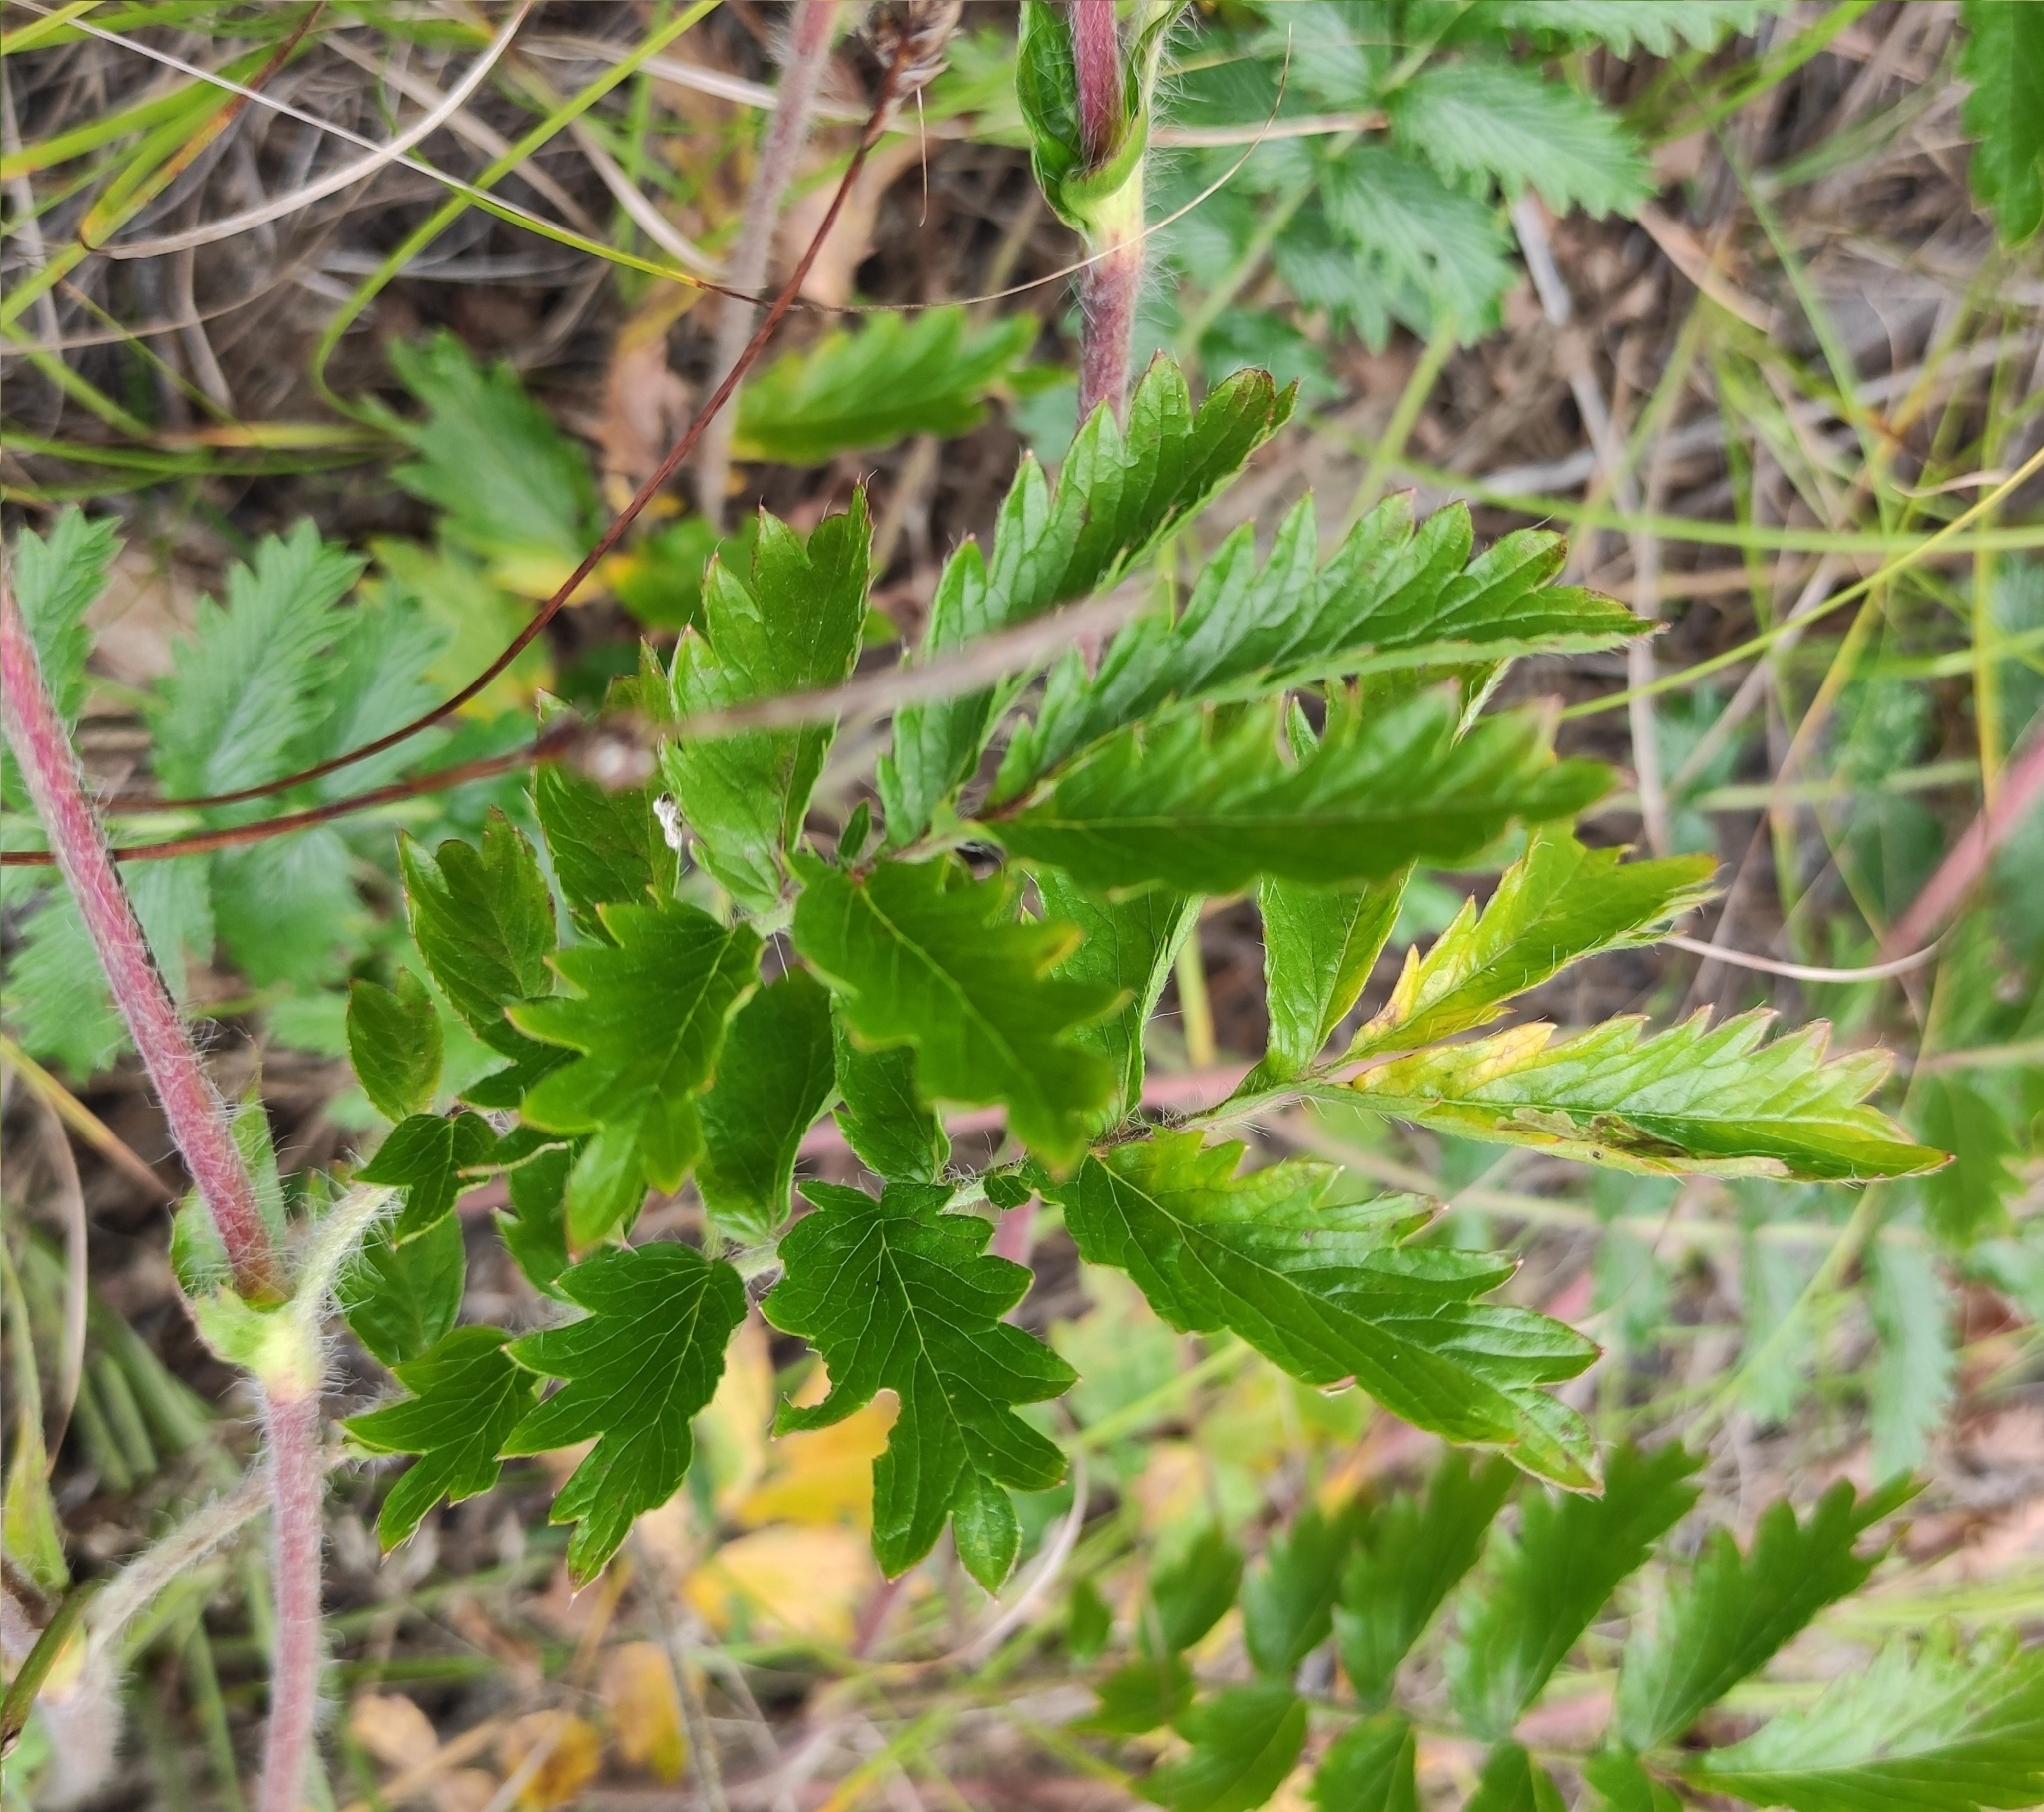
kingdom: Plantae
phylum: Tracheophyta
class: Magnoliopsida
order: Rosales
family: Rosaceae
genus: Potentilla
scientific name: Potentilla tanacetifolia
